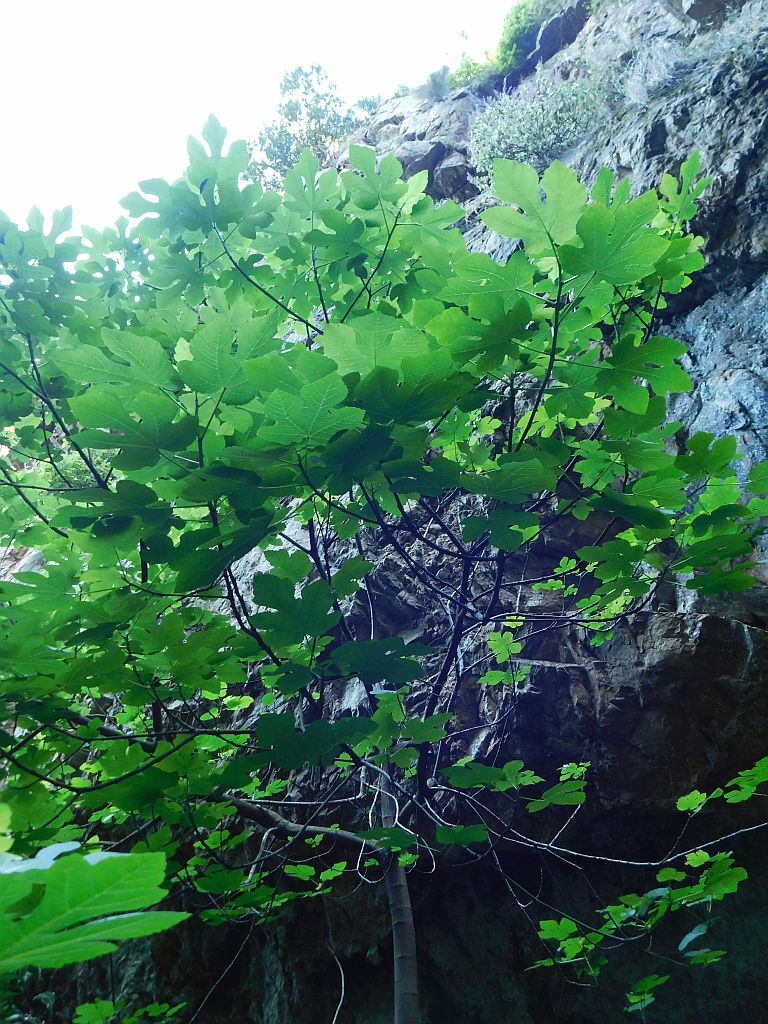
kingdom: Plantae
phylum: Tracheophyta
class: Magnoliopsida
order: Rosales
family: Moraceae
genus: Ficus
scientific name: Ficus carica
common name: Fig
